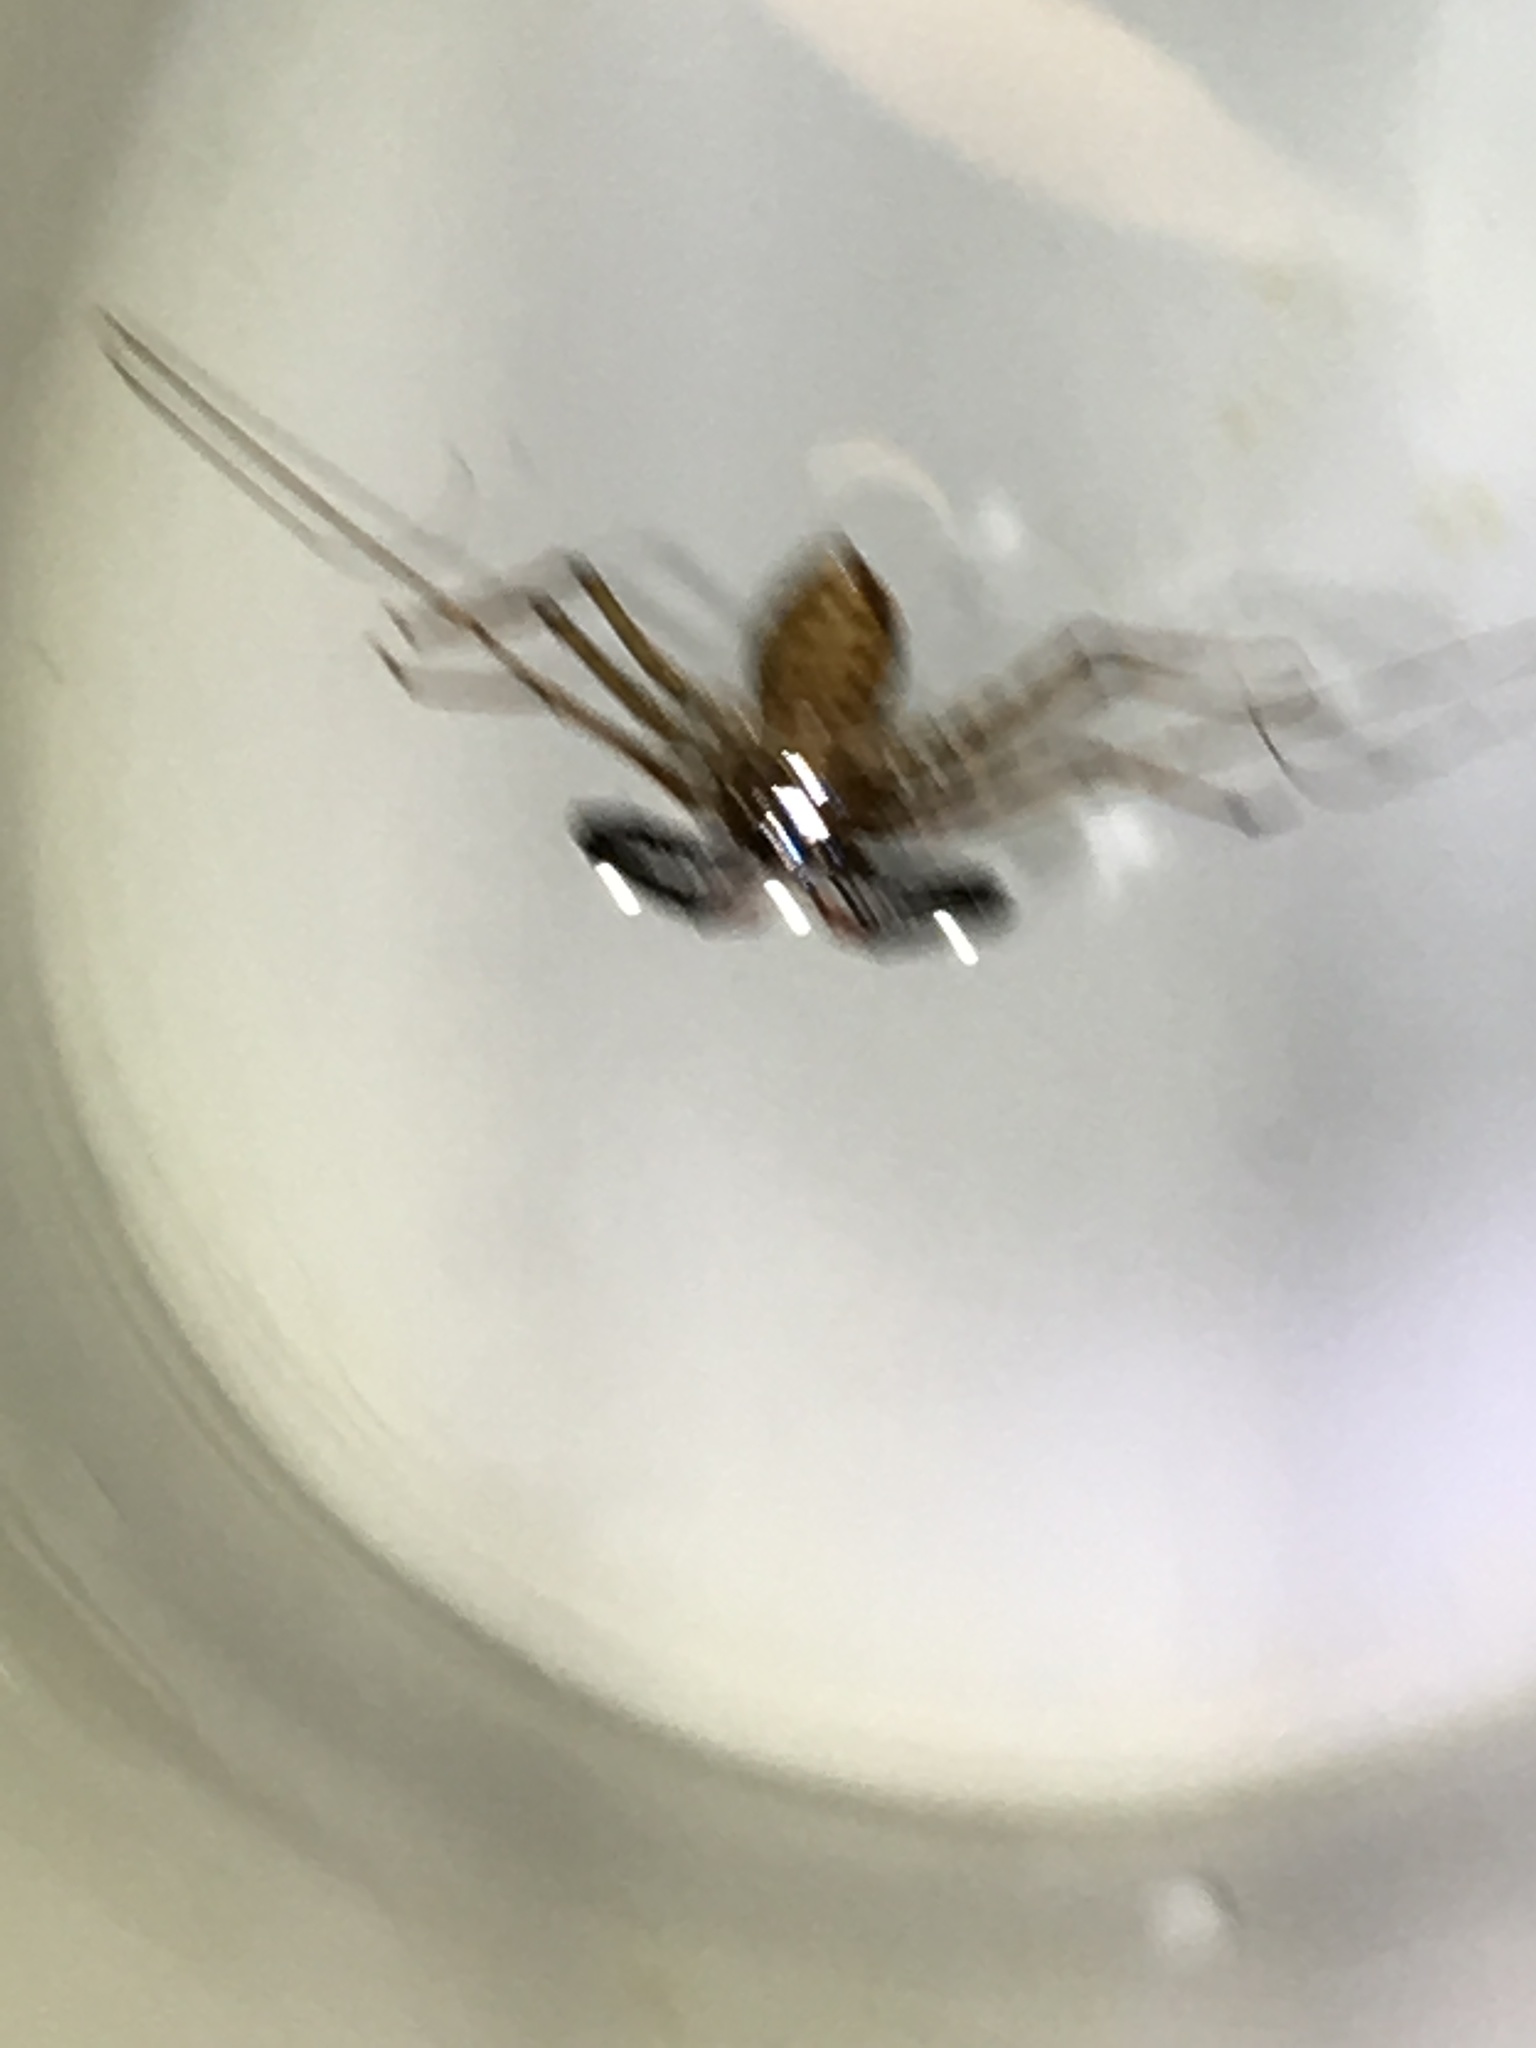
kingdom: Animalia
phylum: Arthropoda
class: Arachnida
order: Amblypygi
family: Phrynichidae
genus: Damon
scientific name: Damon variegatus
